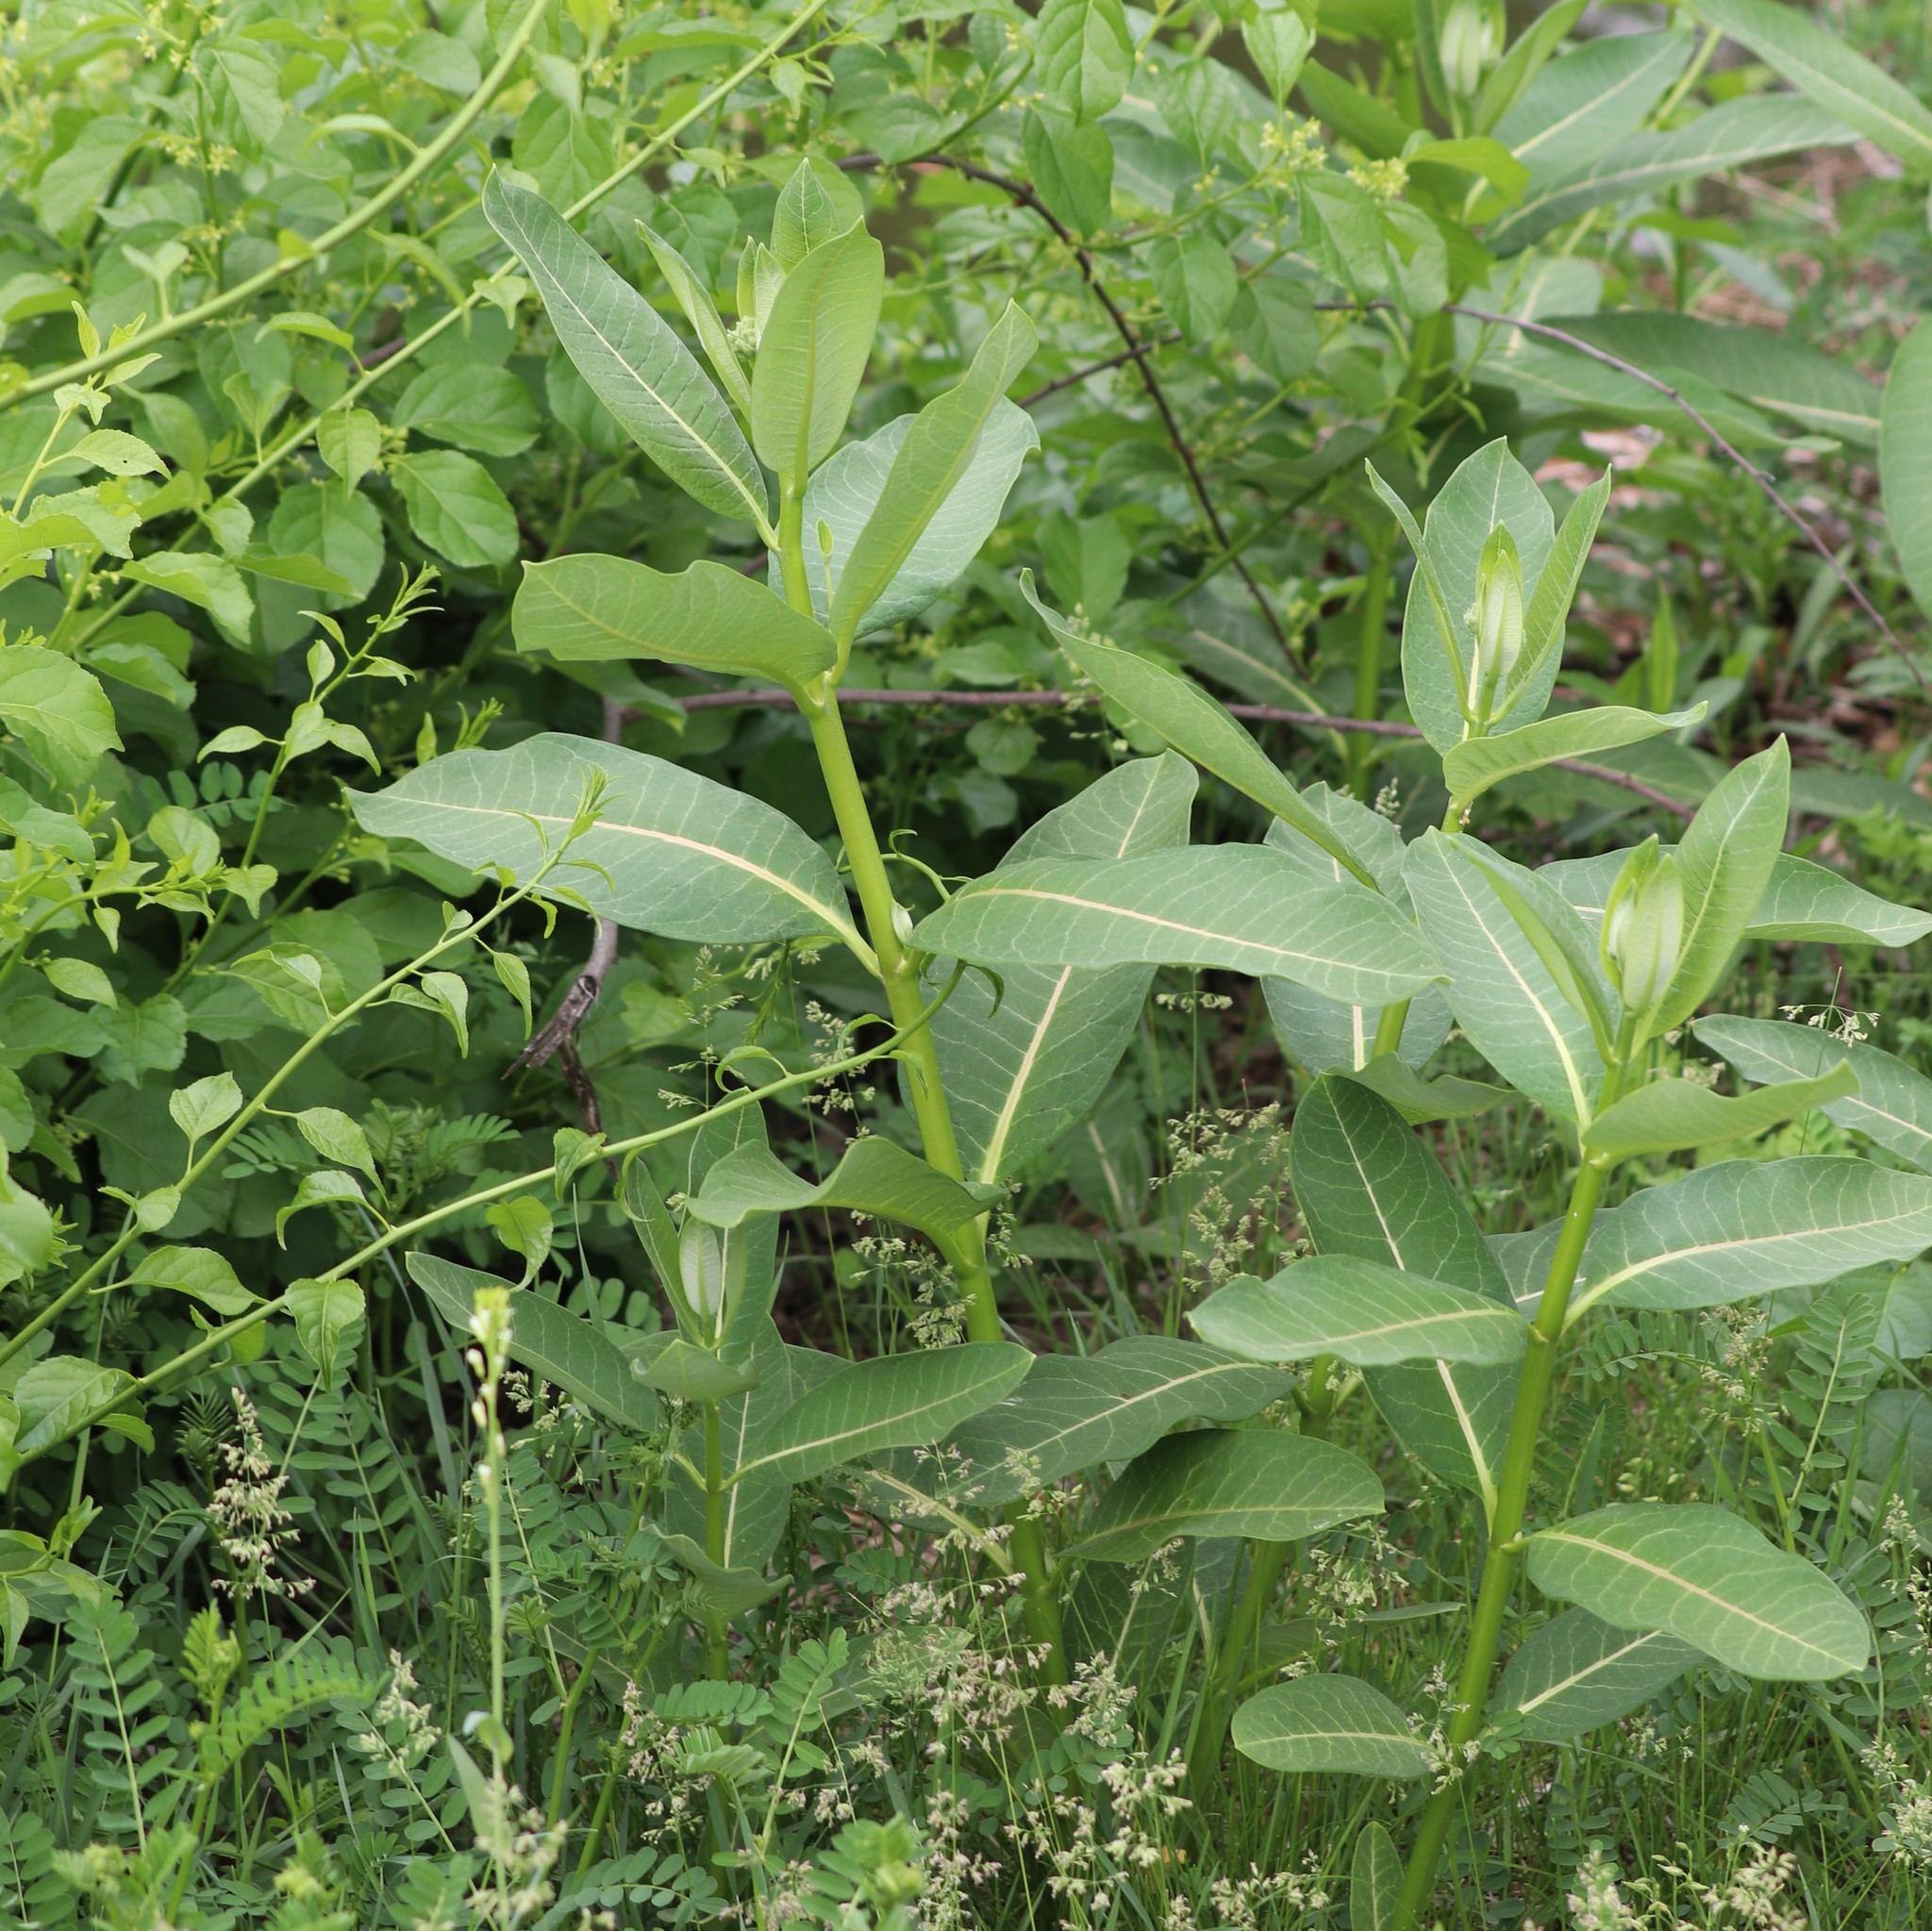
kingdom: Plantae
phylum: Tracheophyta
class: Magnoliopsida
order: Gentianales
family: Apocynaceae
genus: Asclepias
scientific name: Asclepias syriaca
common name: Common milkweed
